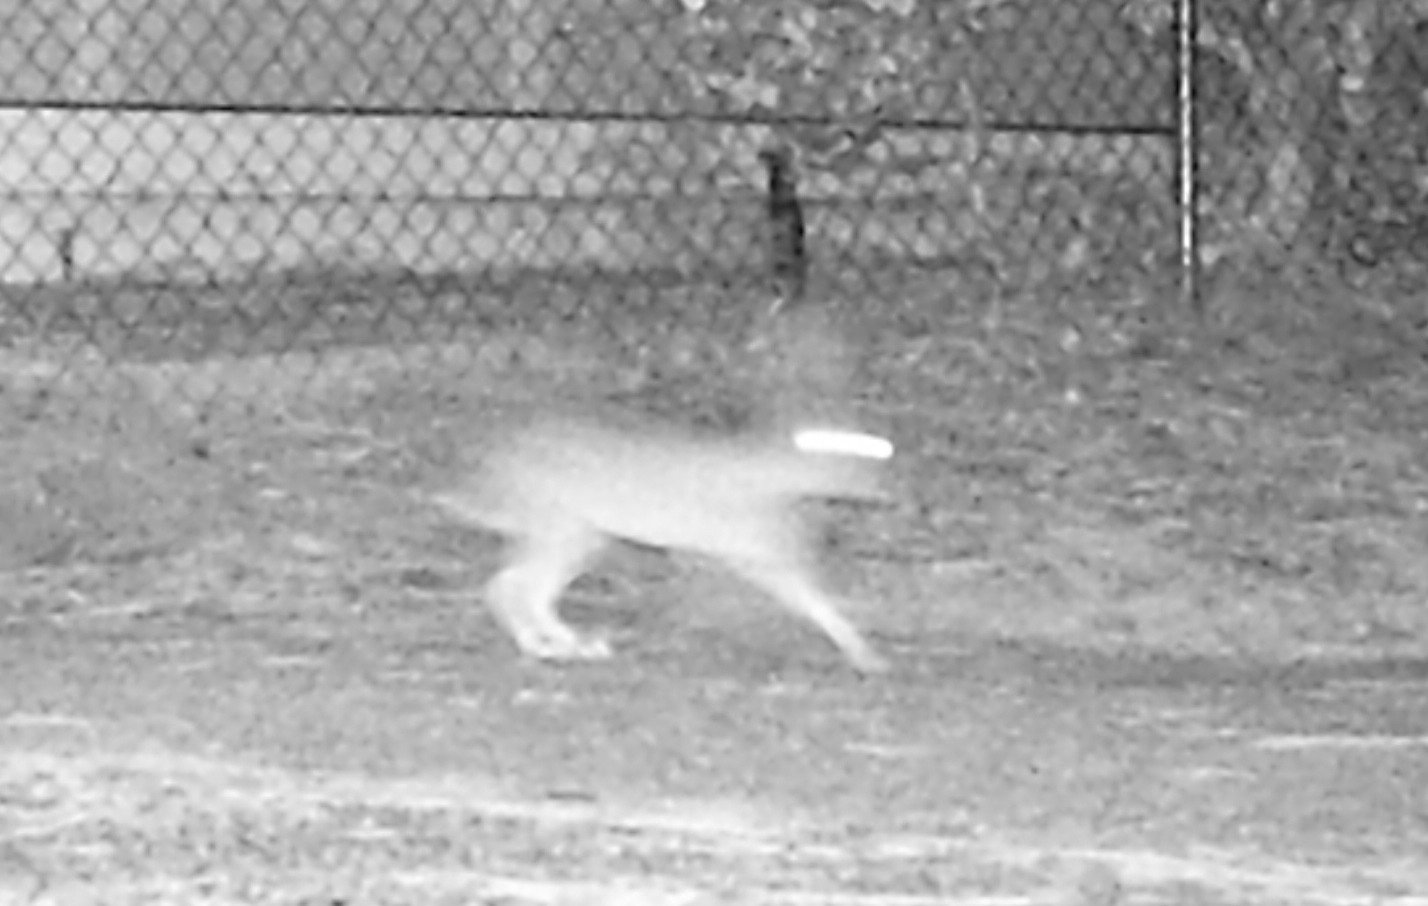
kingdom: Animalia
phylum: Chordata
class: Mammalia
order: Lagomorpha
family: Leporidae
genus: Lepus
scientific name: Lepus californicus
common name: Black-tailed jackrabbit
